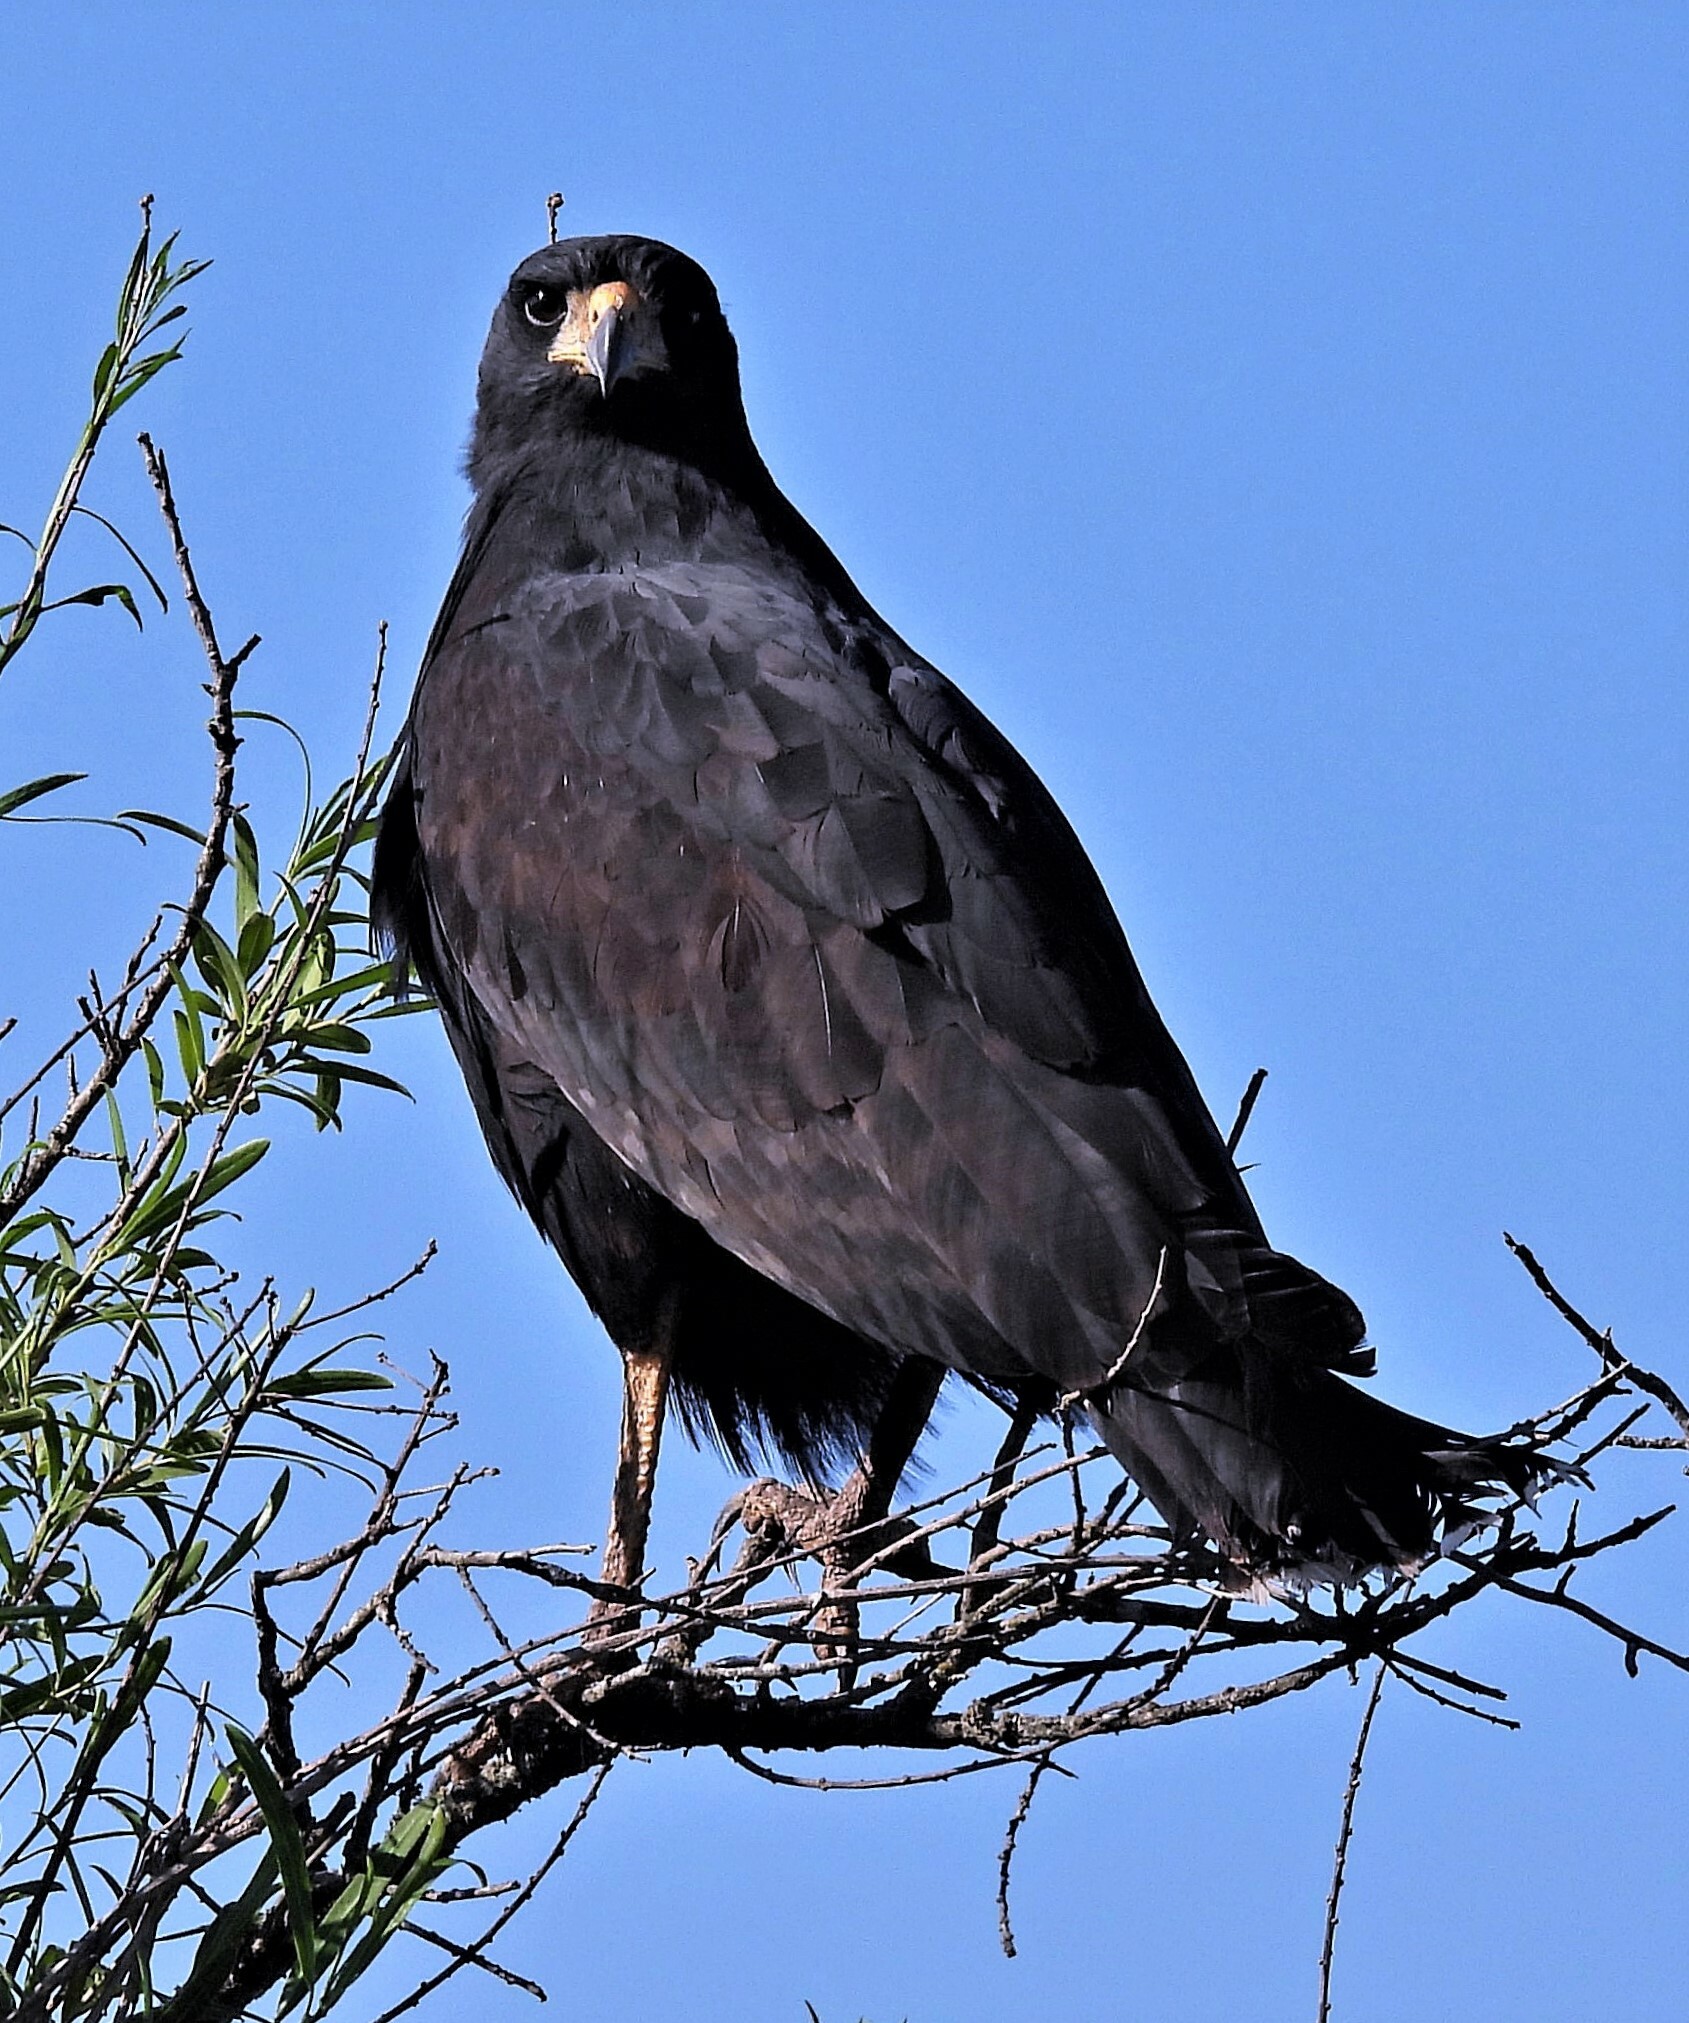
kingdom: Animalia
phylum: Chordata
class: Aves
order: Accipitriformes
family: Accipitridae
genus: Buteogallus
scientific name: Buteogallus urubitinga
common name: Great black hawk
